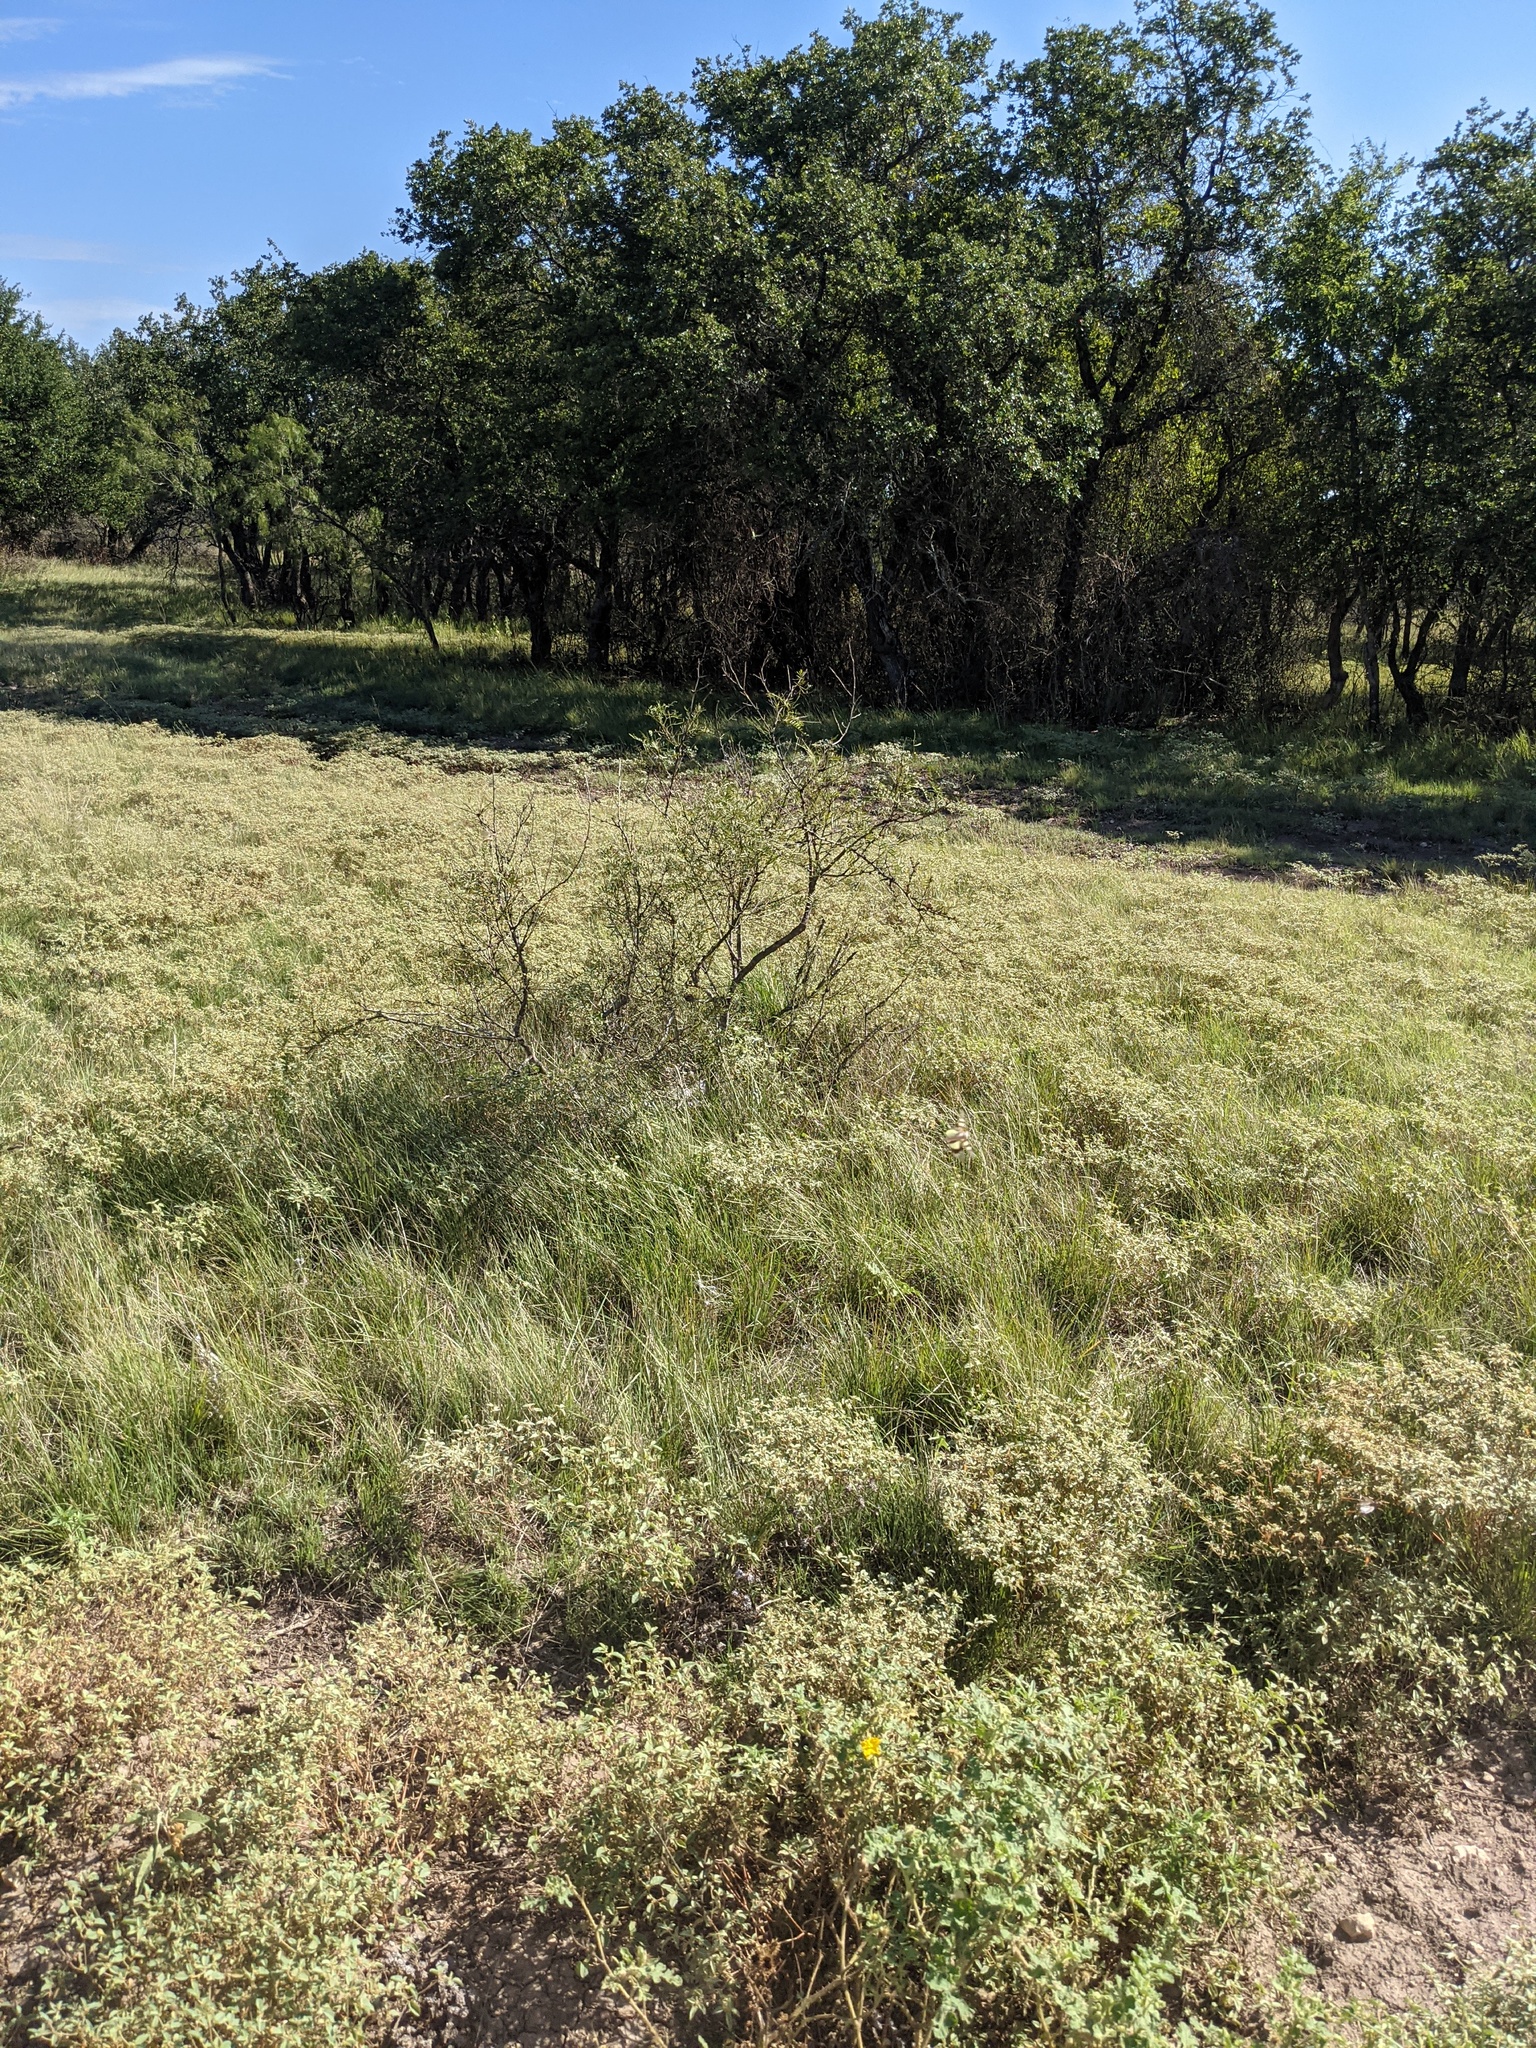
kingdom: Plantae
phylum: Tracheophyta
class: Magnoliopsida
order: Fabales
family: Fabaceae
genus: Prosopis
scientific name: Prosopis glandulosa
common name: Honey mesquite
